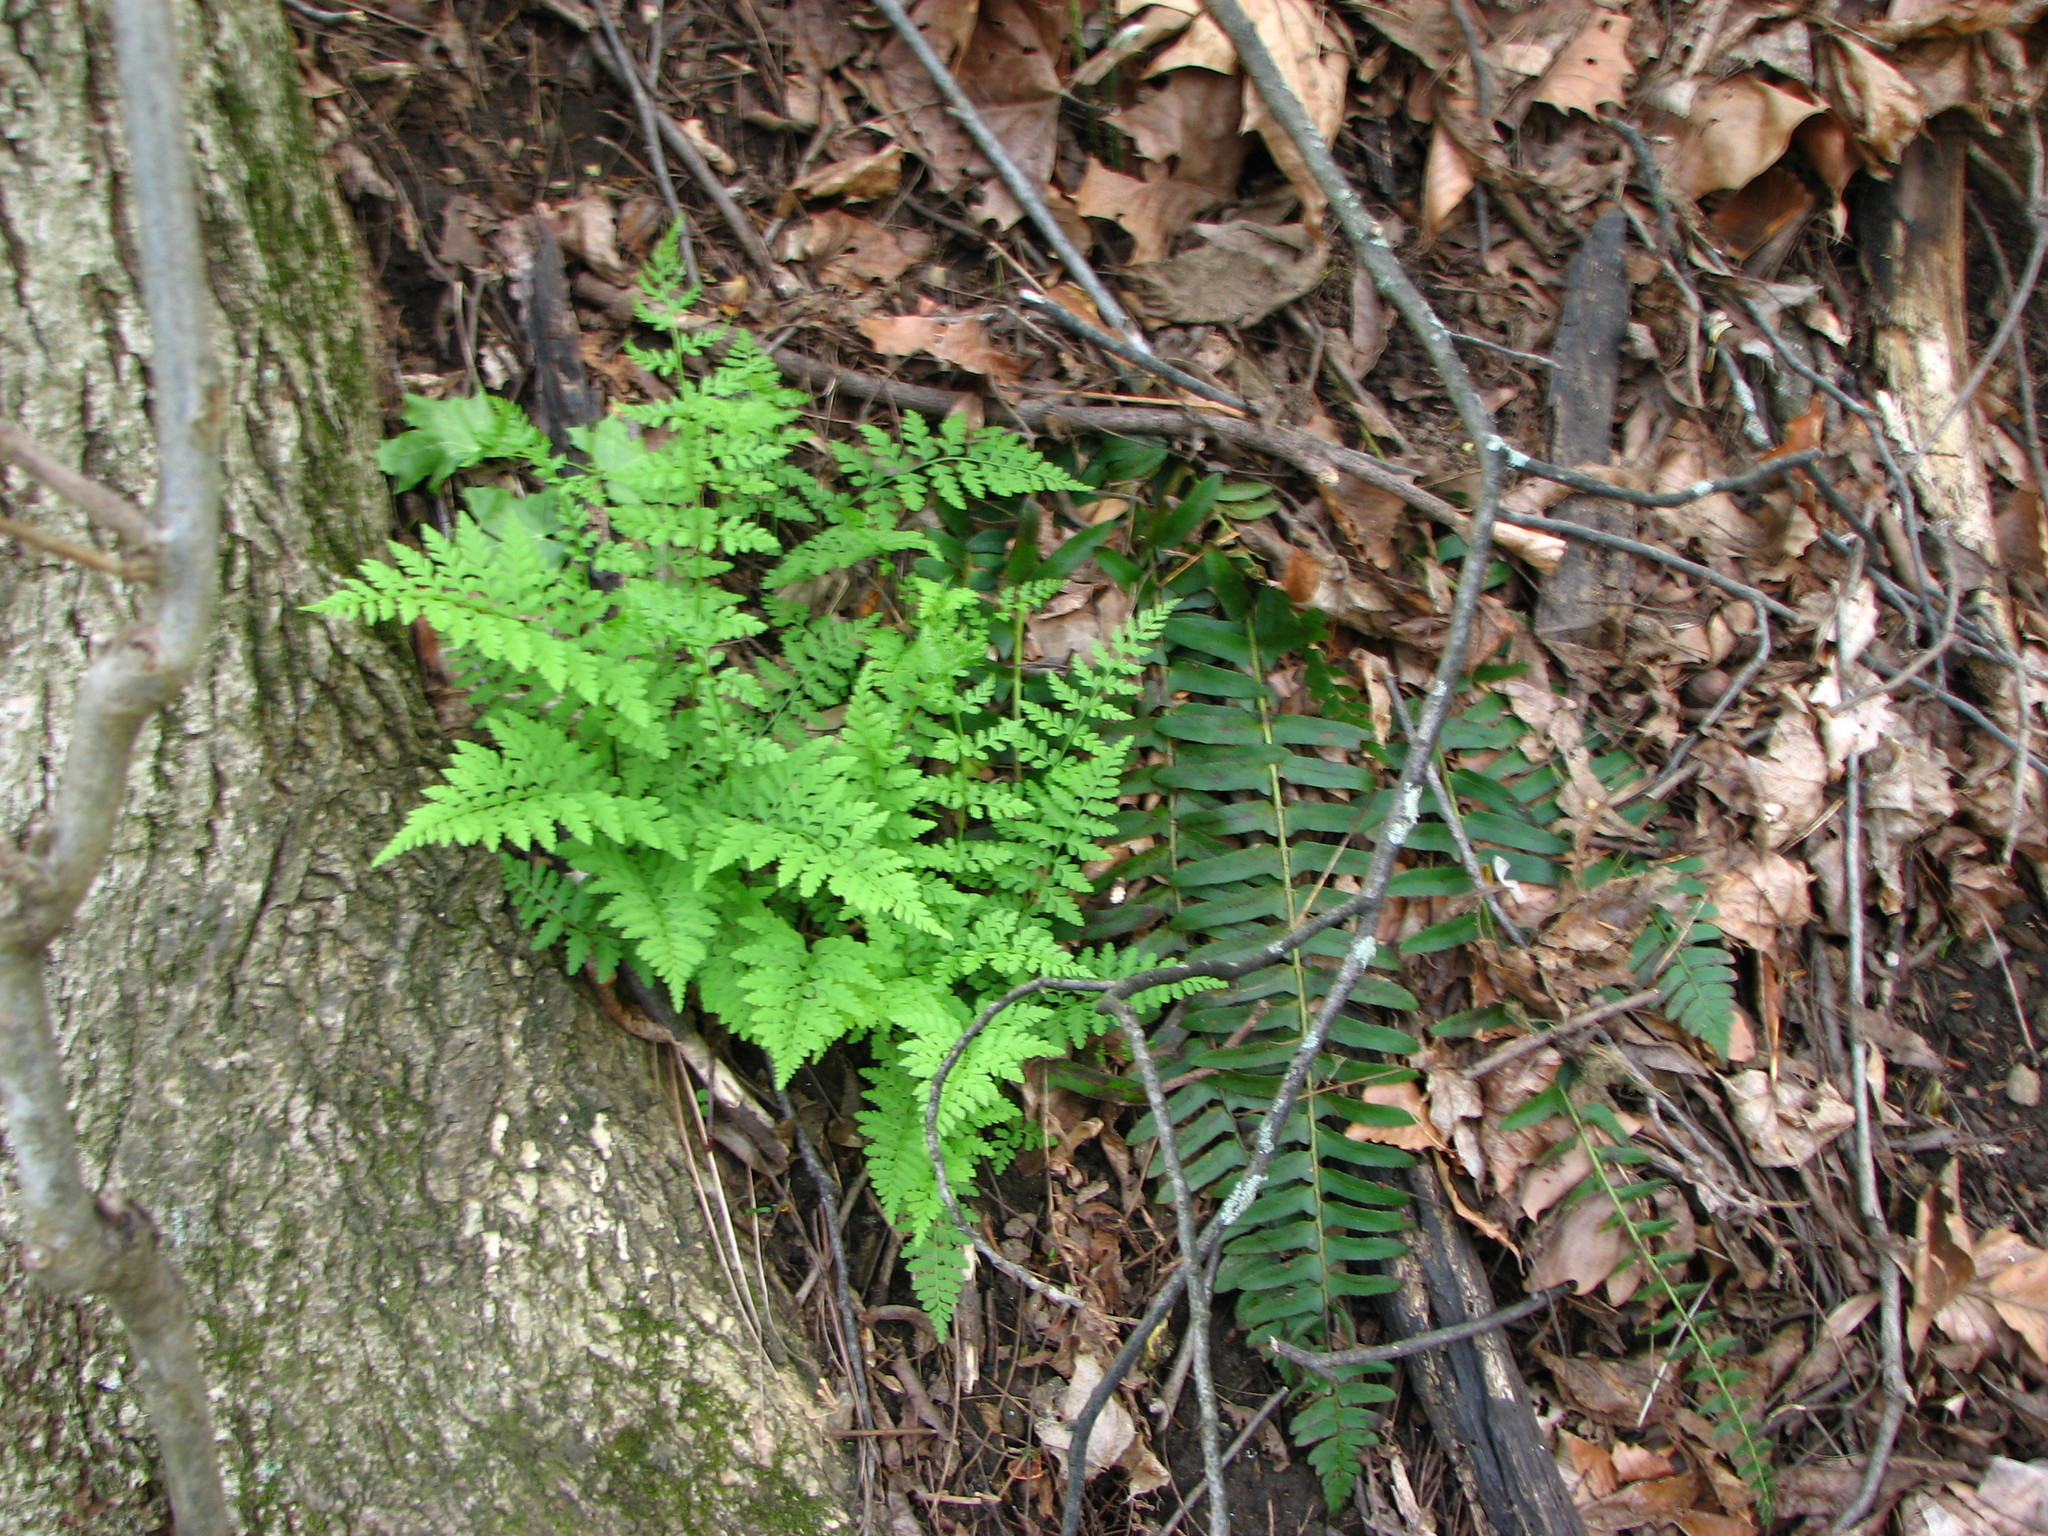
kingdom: Plantae
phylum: Tracheophyta
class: Polypodiopsida
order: Polypodiales
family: Cystopteridaceae
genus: Cystopteris
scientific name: Cystopteris protrusa
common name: Lowland brittle fern
